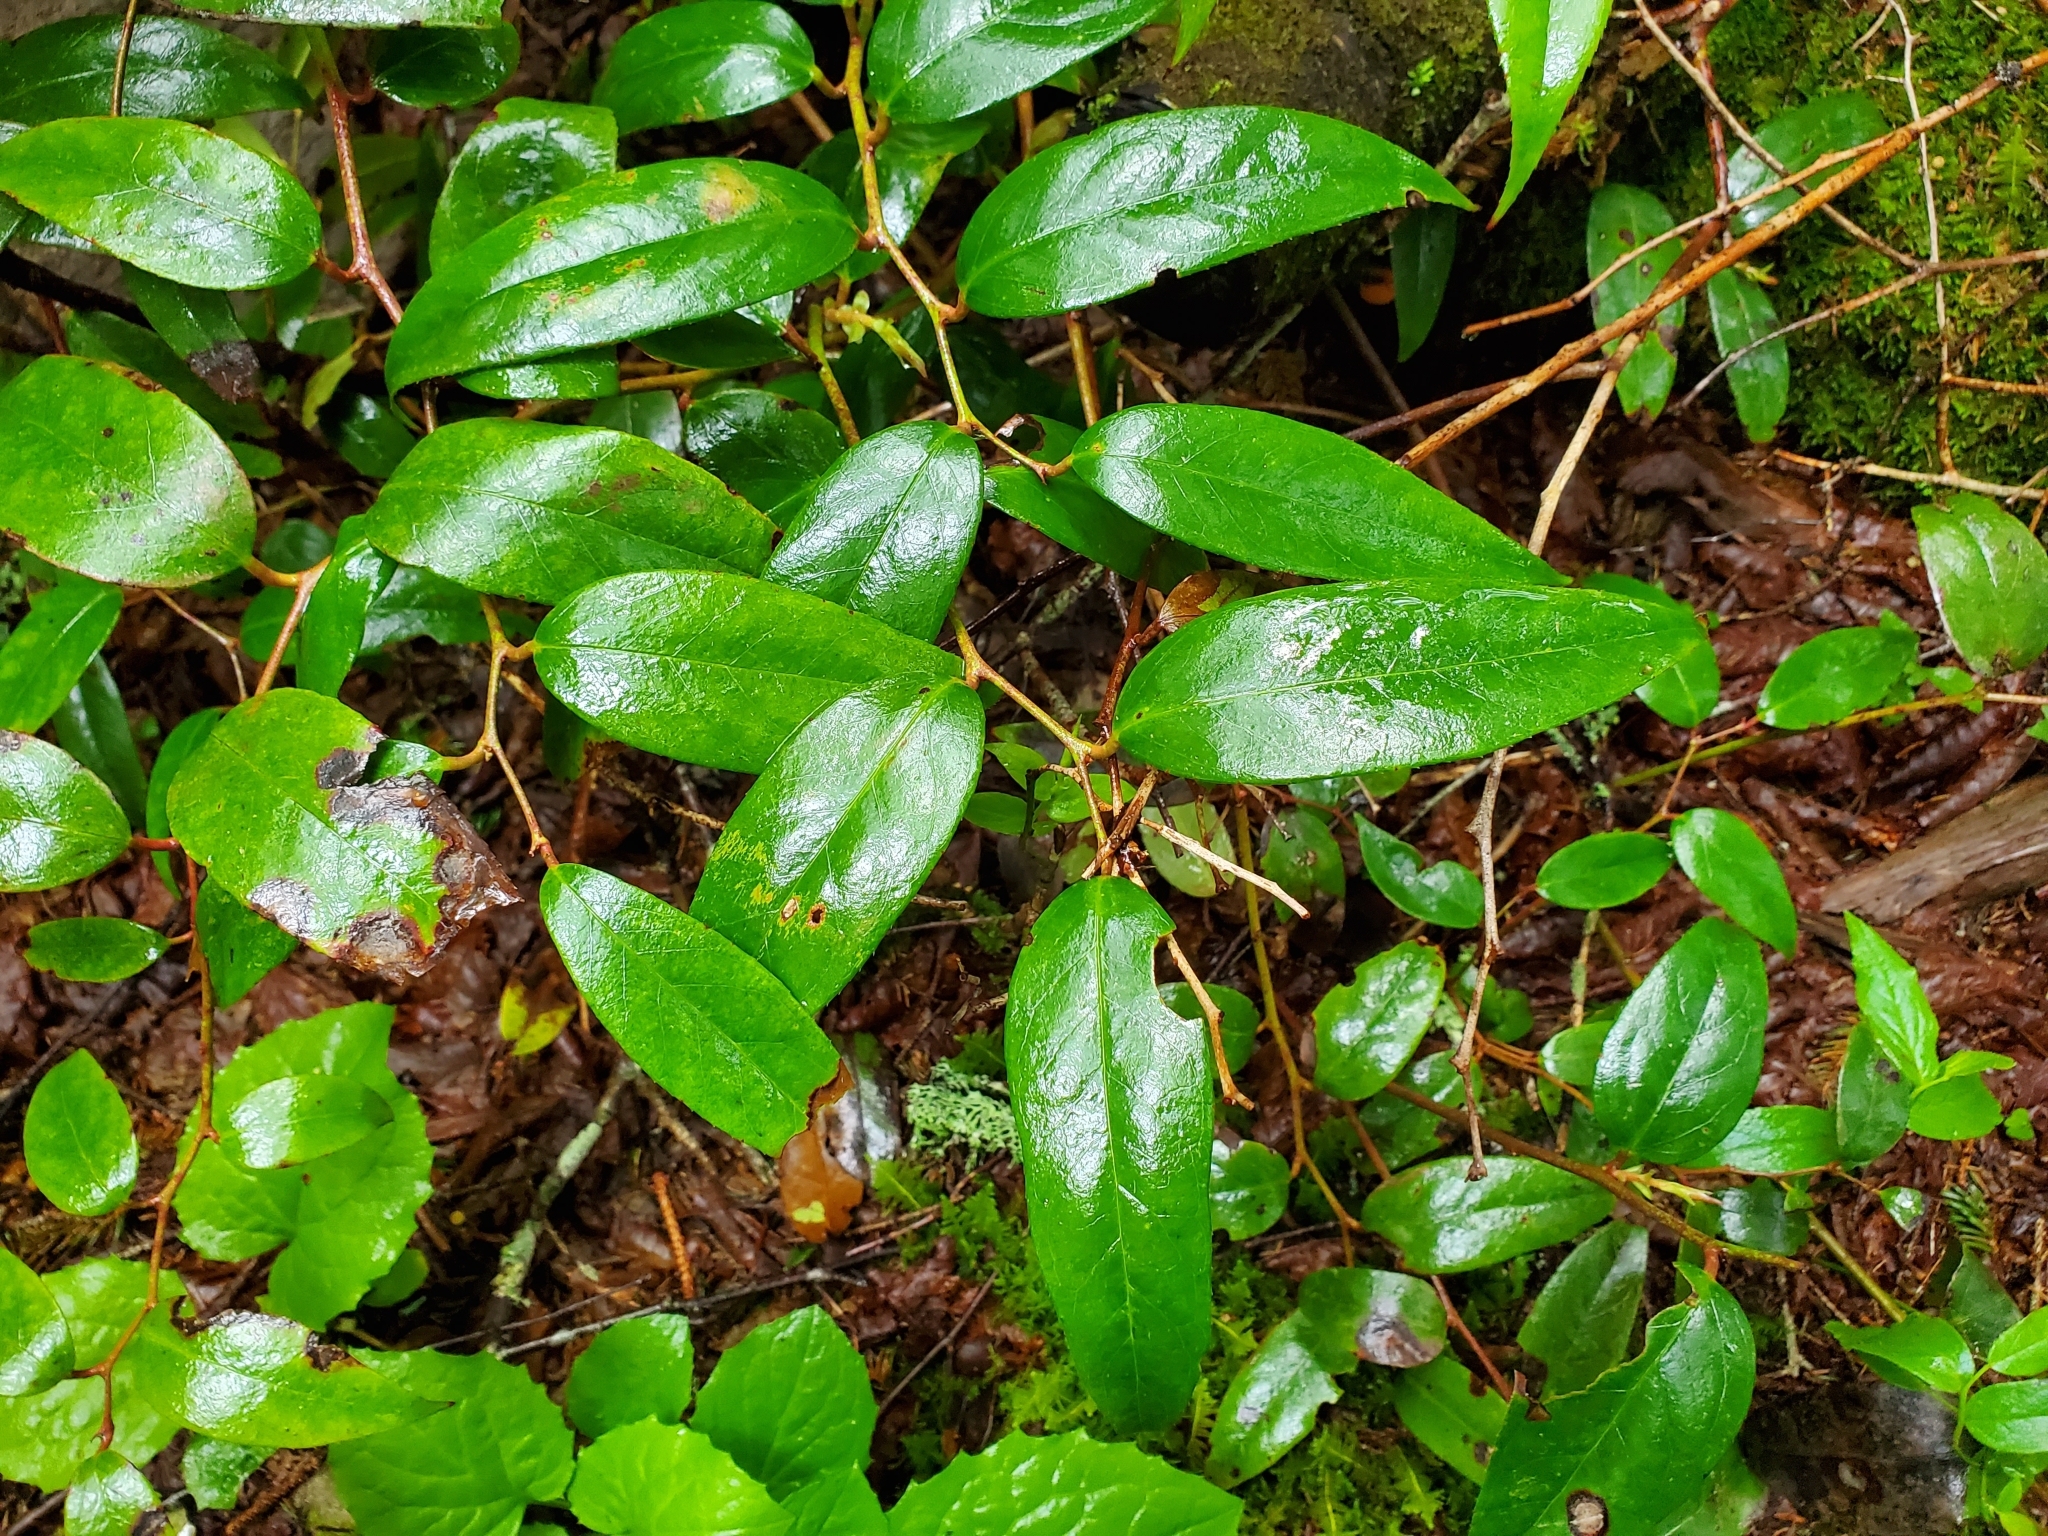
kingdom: Plantae
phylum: Tracheophyta
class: Magnoliopsida
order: Ericales
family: Ericaceae
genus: Leucothoe
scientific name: Leucothoe fontanesiana
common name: Fetterbush
